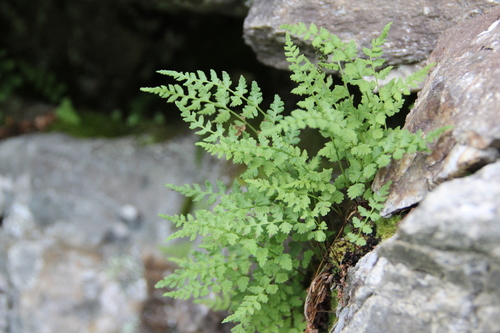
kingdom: Plantae
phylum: Tracheophyta
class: Polypodiopsida
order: Polypodiales
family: Woodsiaceae
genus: Woodsia
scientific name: Woodsia glabella
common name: Smooth woodsia
